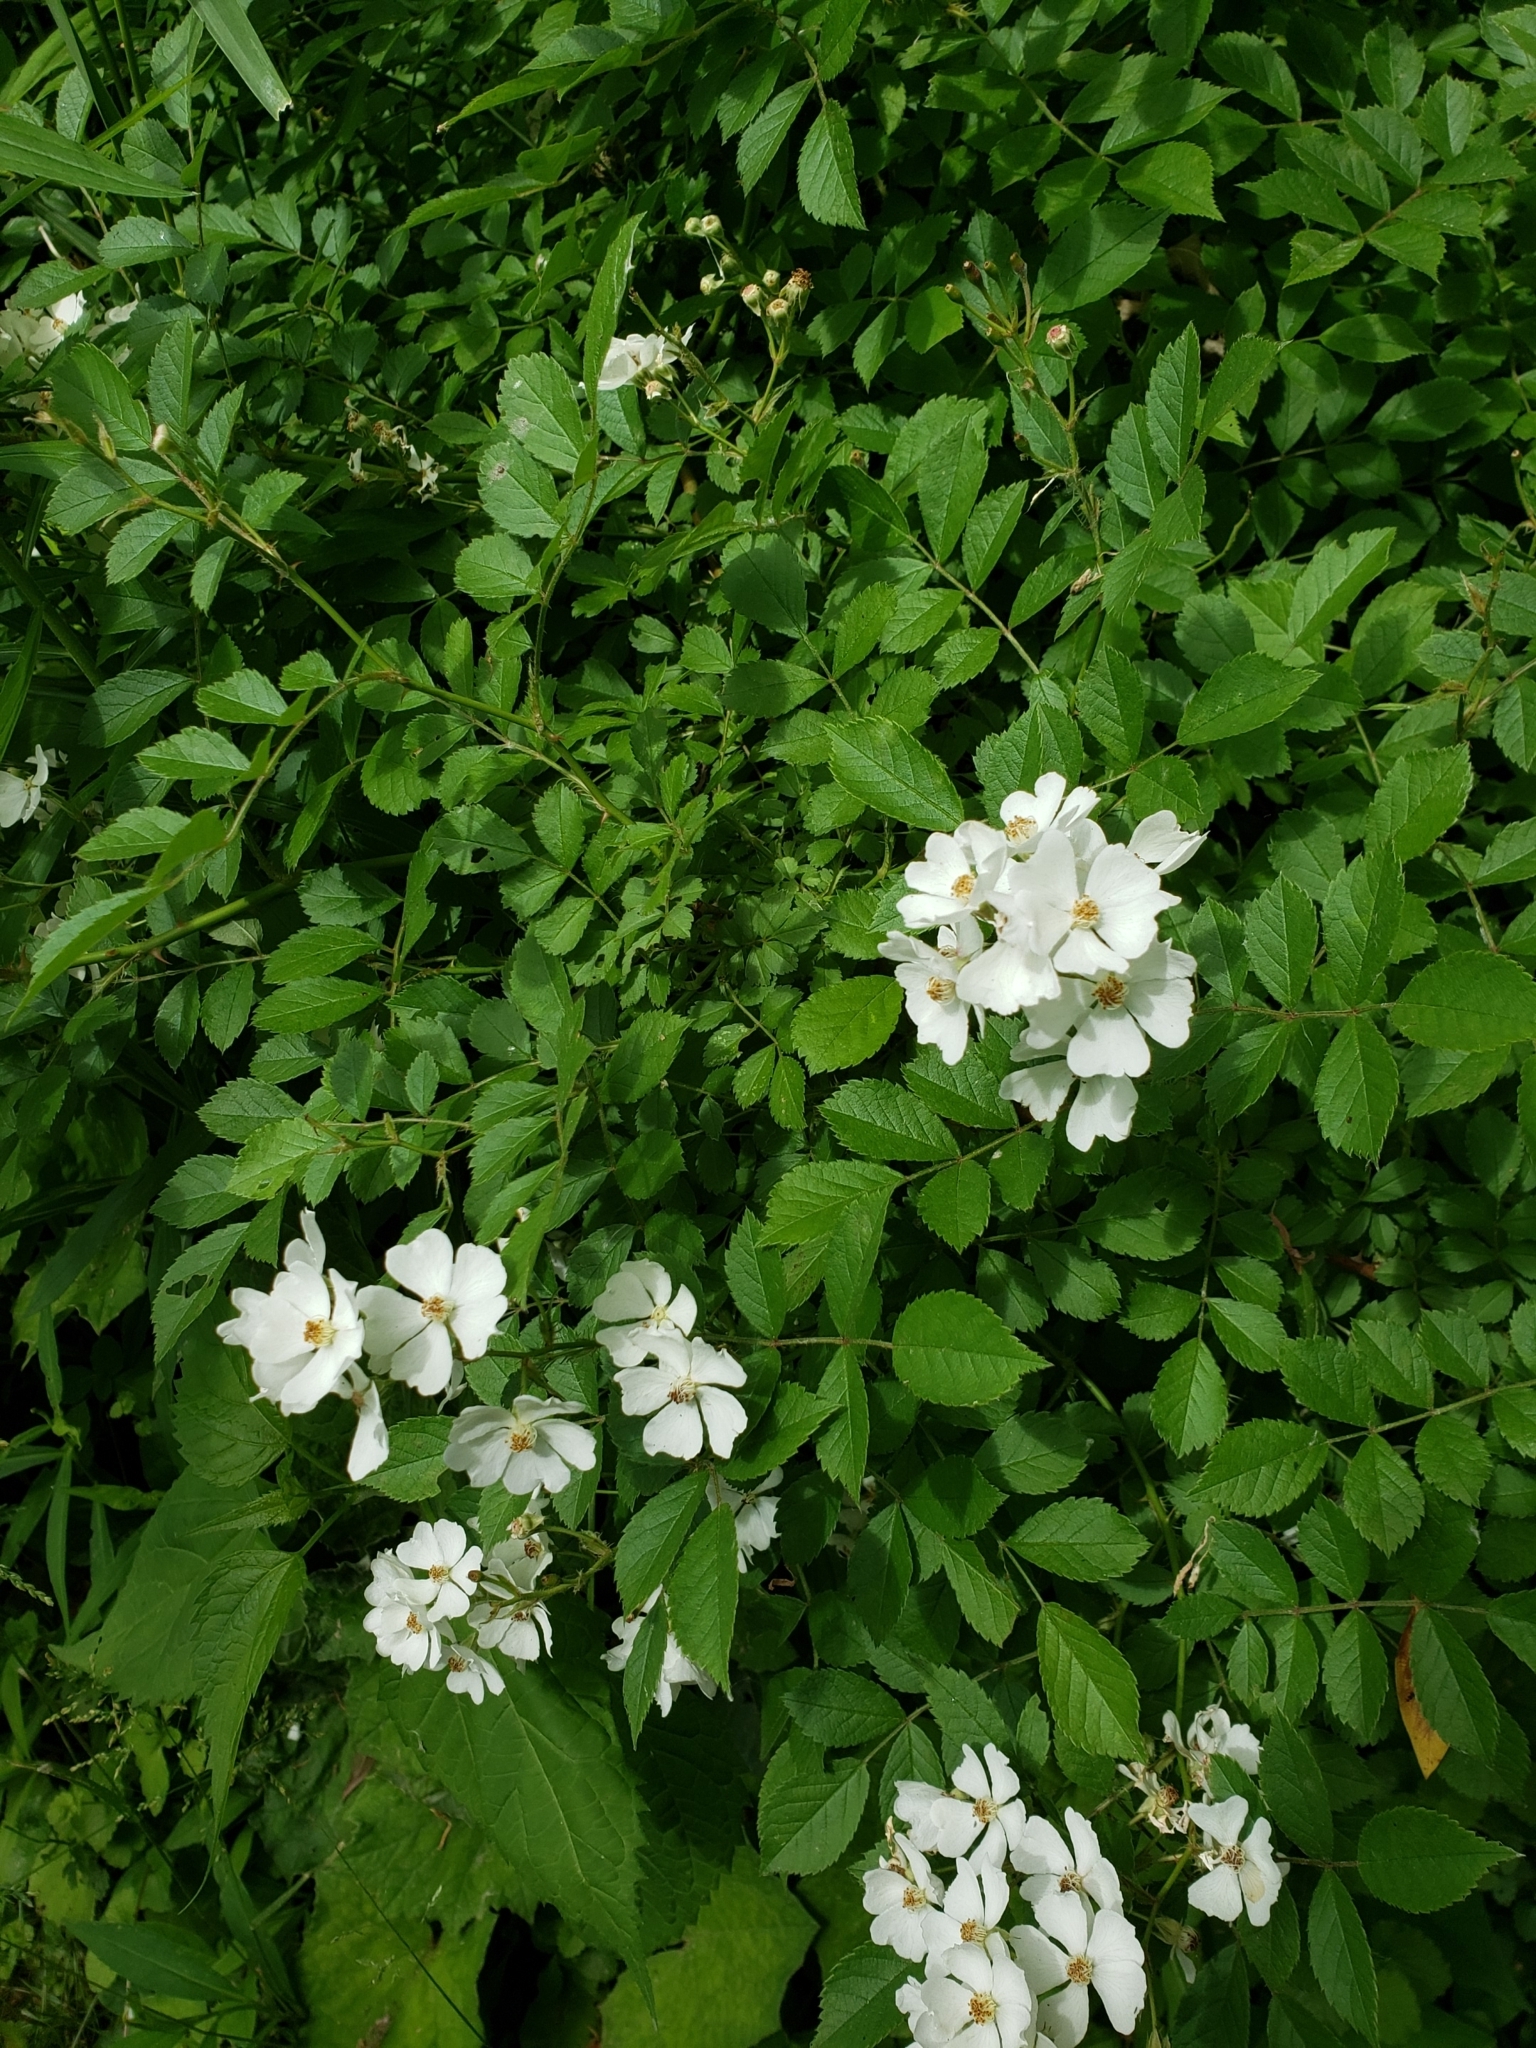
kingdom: Plantae
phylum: Tracheophyta
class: Magnoliopsida
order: Rosales
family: Rosaceae
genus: Rosa
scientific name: Rosa multiflora
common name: Multiflora rose
